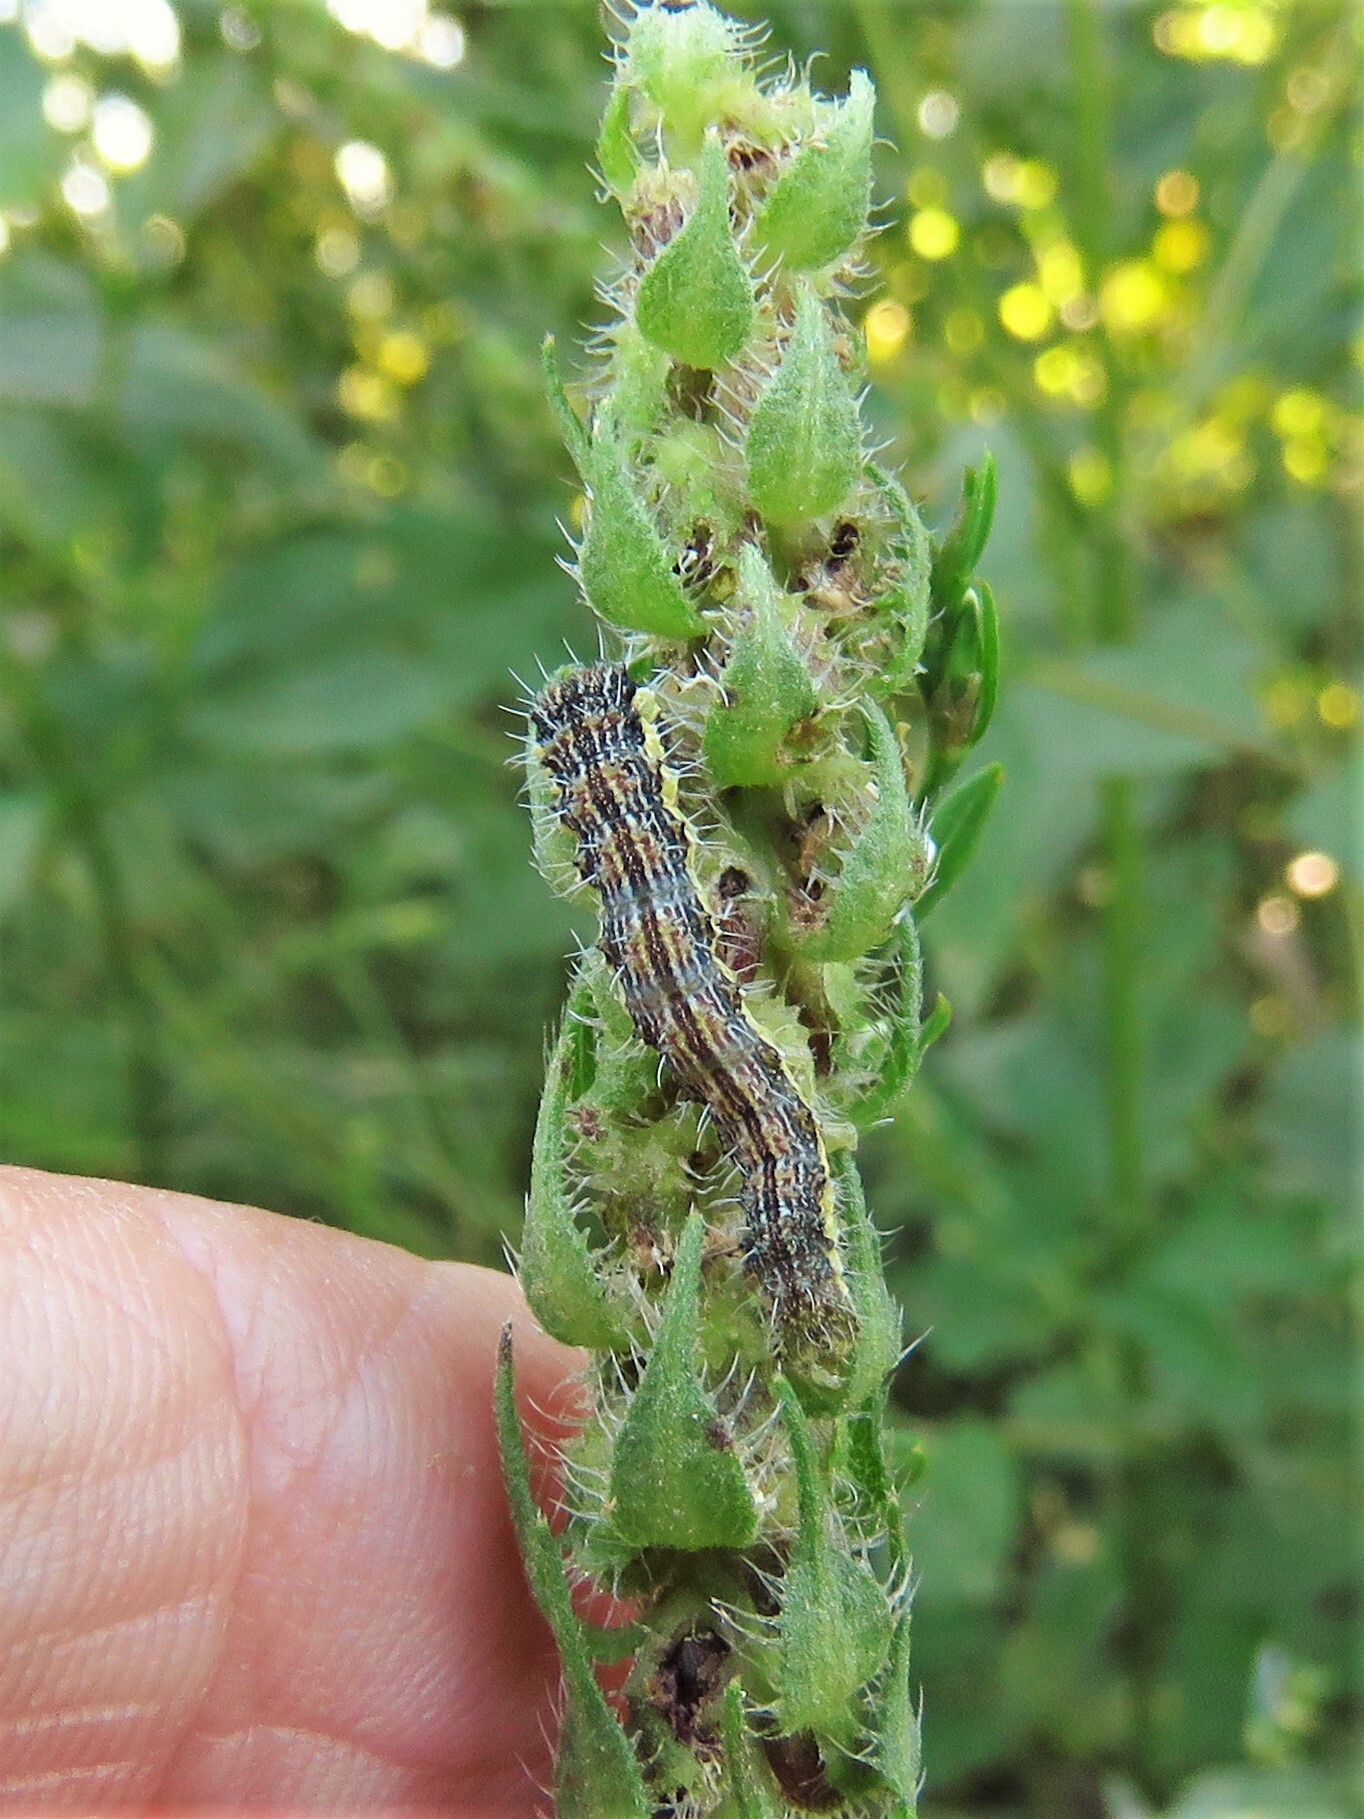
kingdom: Animalia
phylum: Arthropoda
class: Insecta
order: Lepidoptera
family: Noctuidae
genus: Schinia
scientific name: Schinia gracilenta
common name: Slender flower moth
